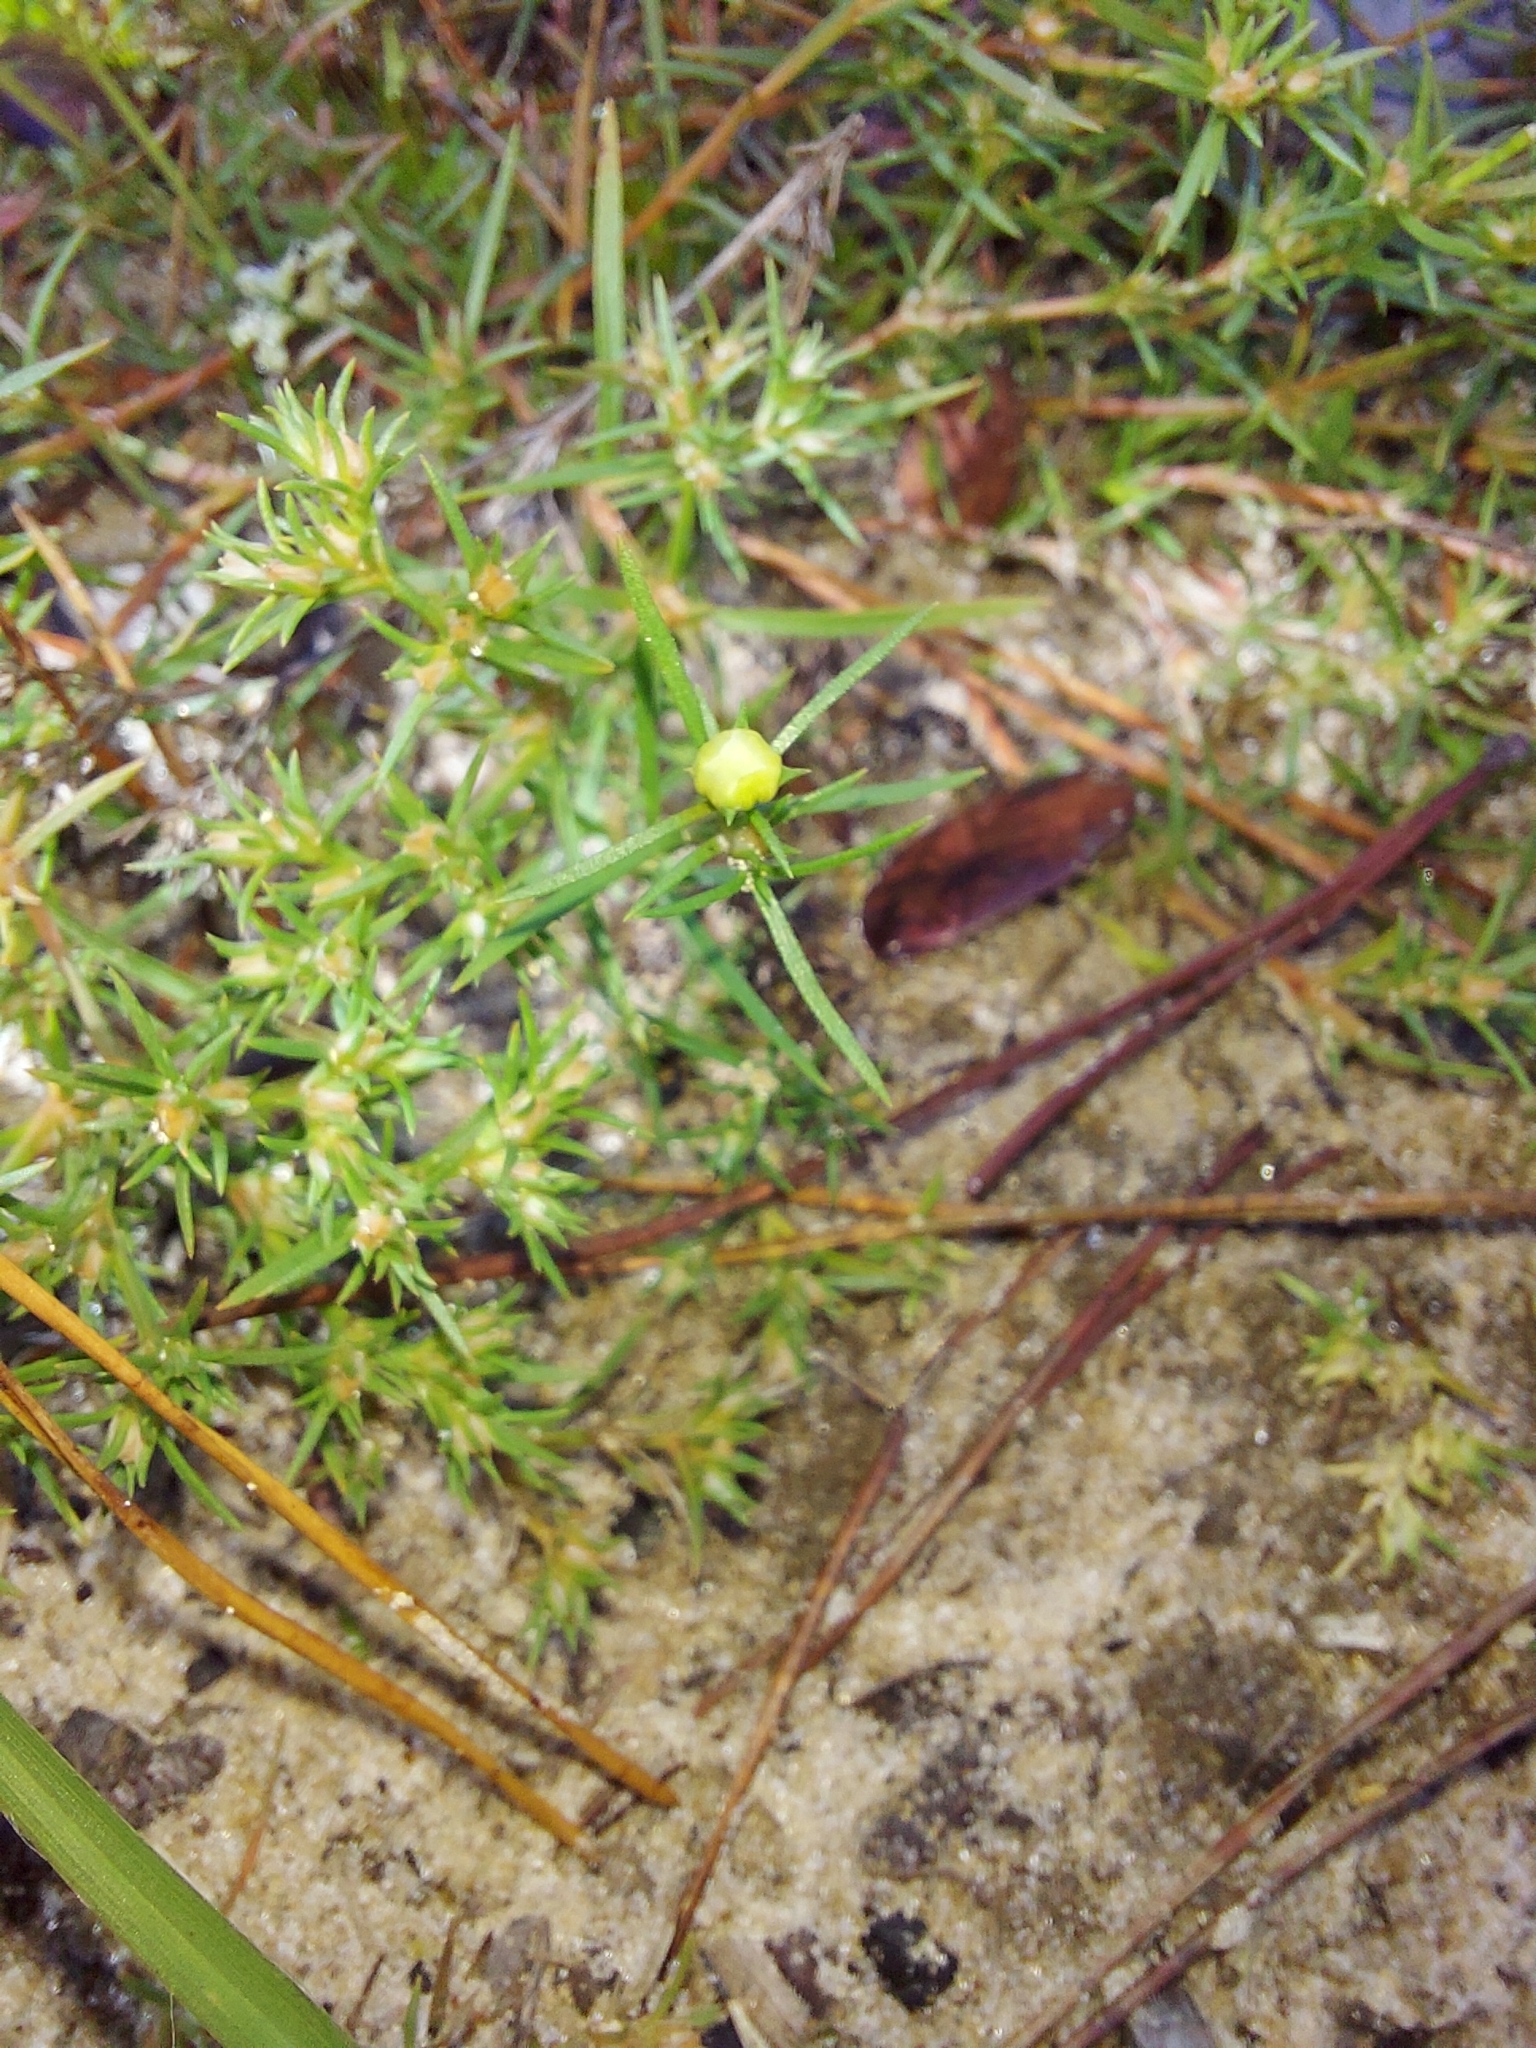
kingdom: Plantae
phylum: Tracheophyta
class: Magnoliopsida
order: Lamiales
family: Tetrachondraceae
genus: Polypremum
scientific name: Polypremum procumbens
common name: Juniper-leaf
